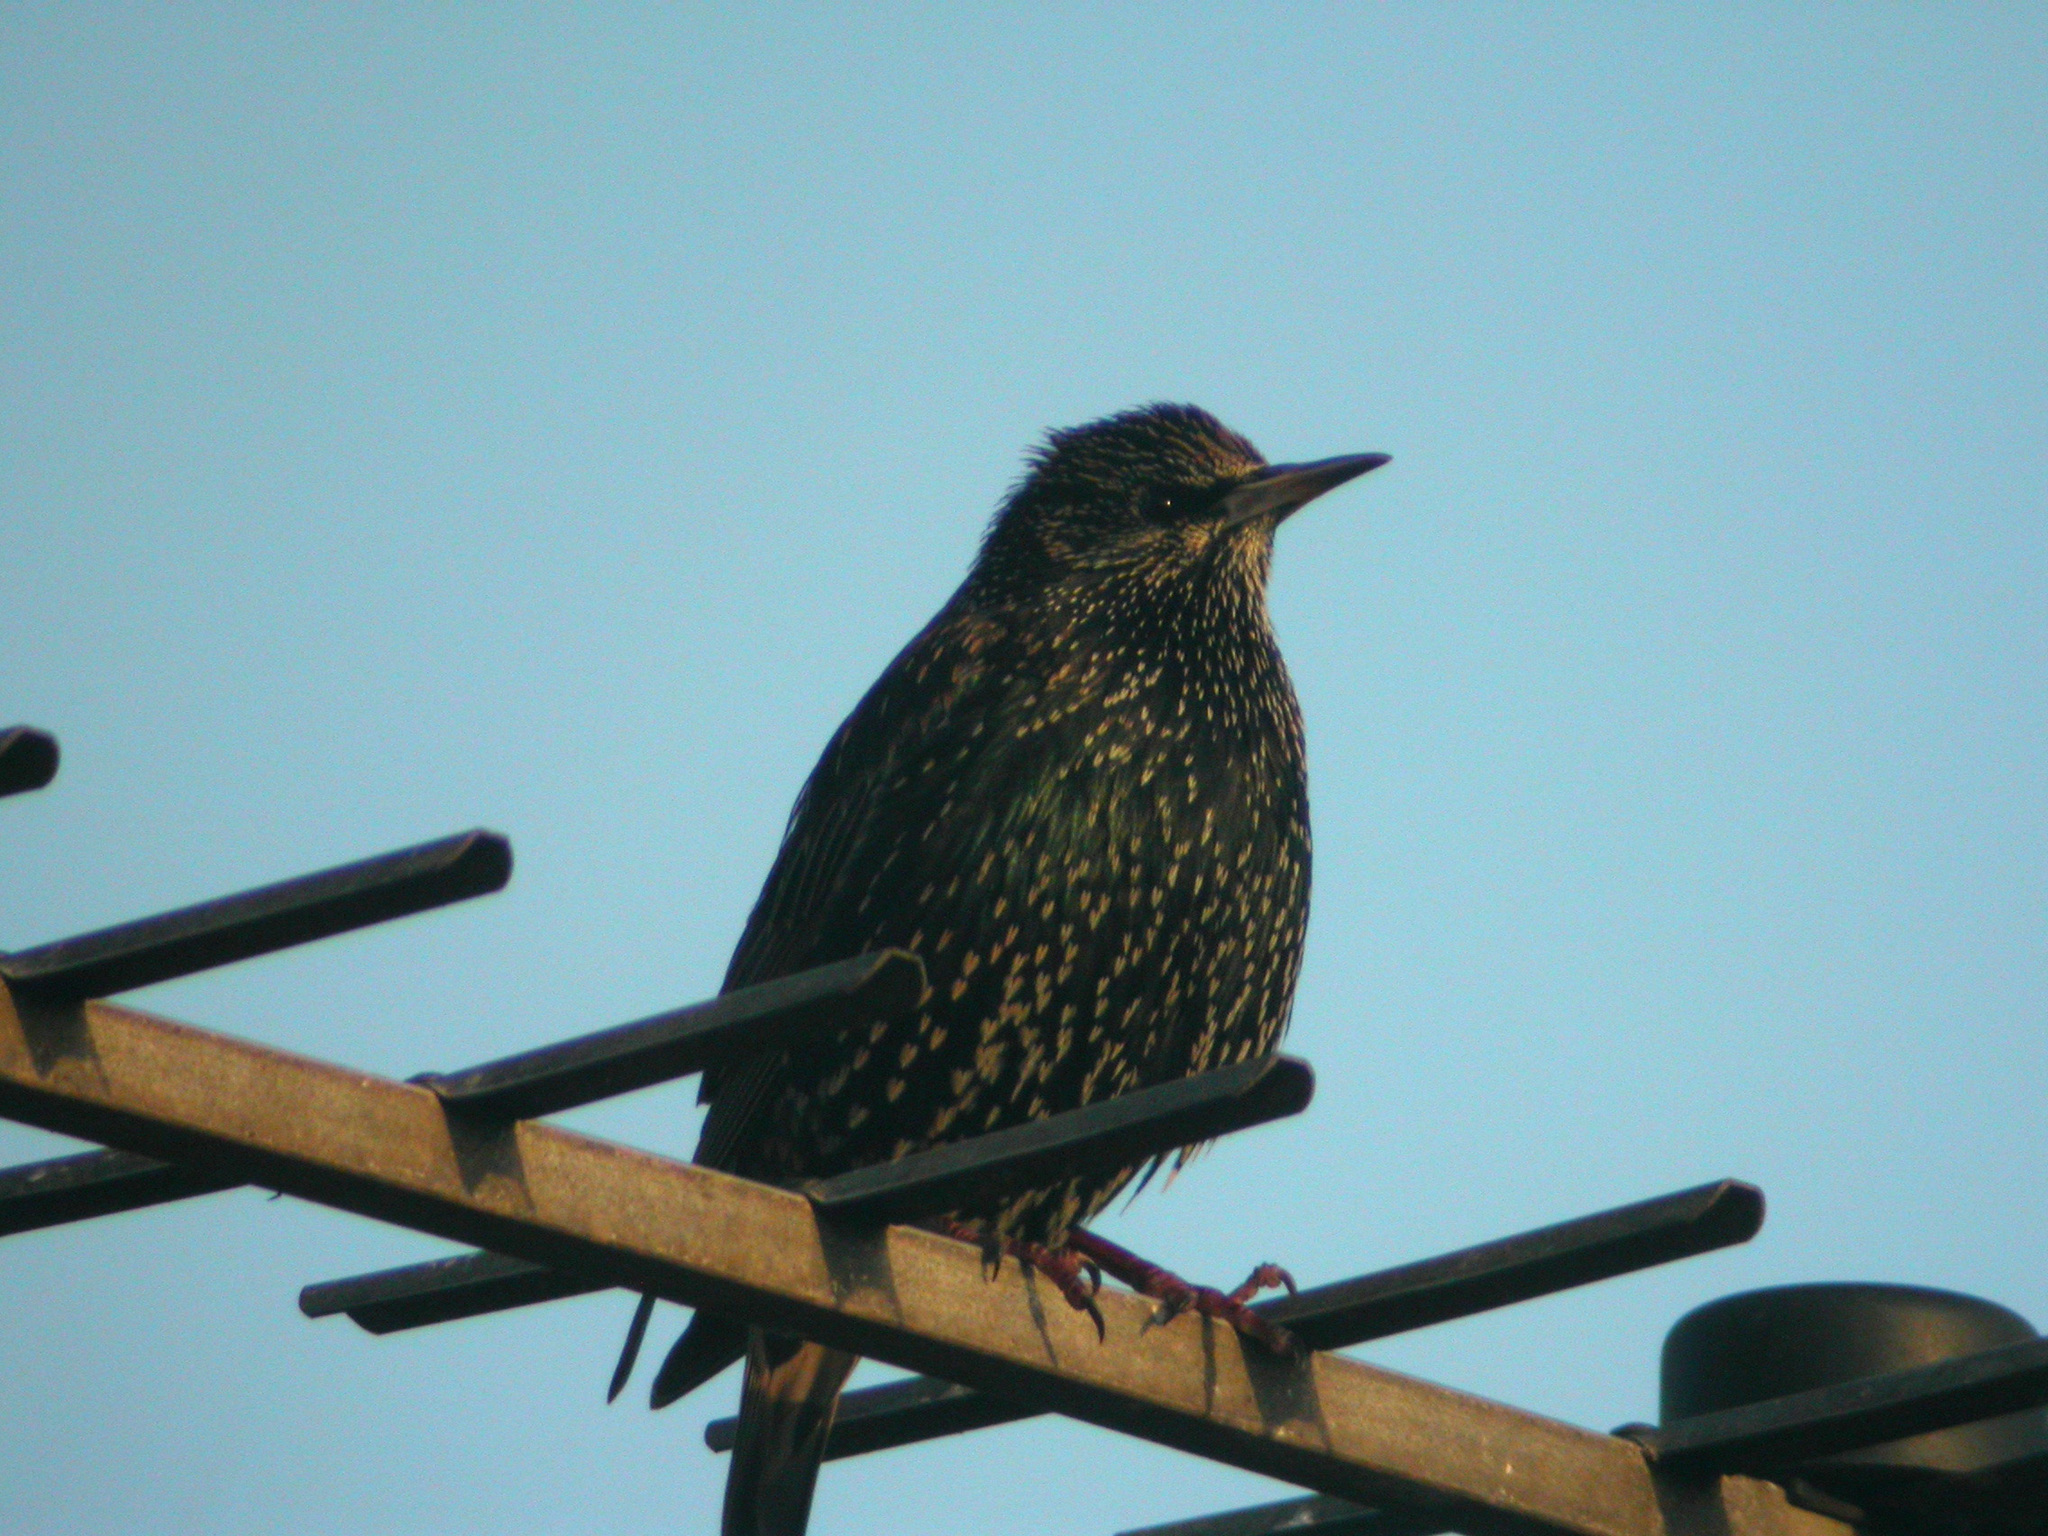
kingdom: Animalia
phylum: Chordata
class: Aves
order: Passeriformes
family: Sturnidae
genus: Sturnus
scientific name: Sturnus vulgaris
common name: Common starling
